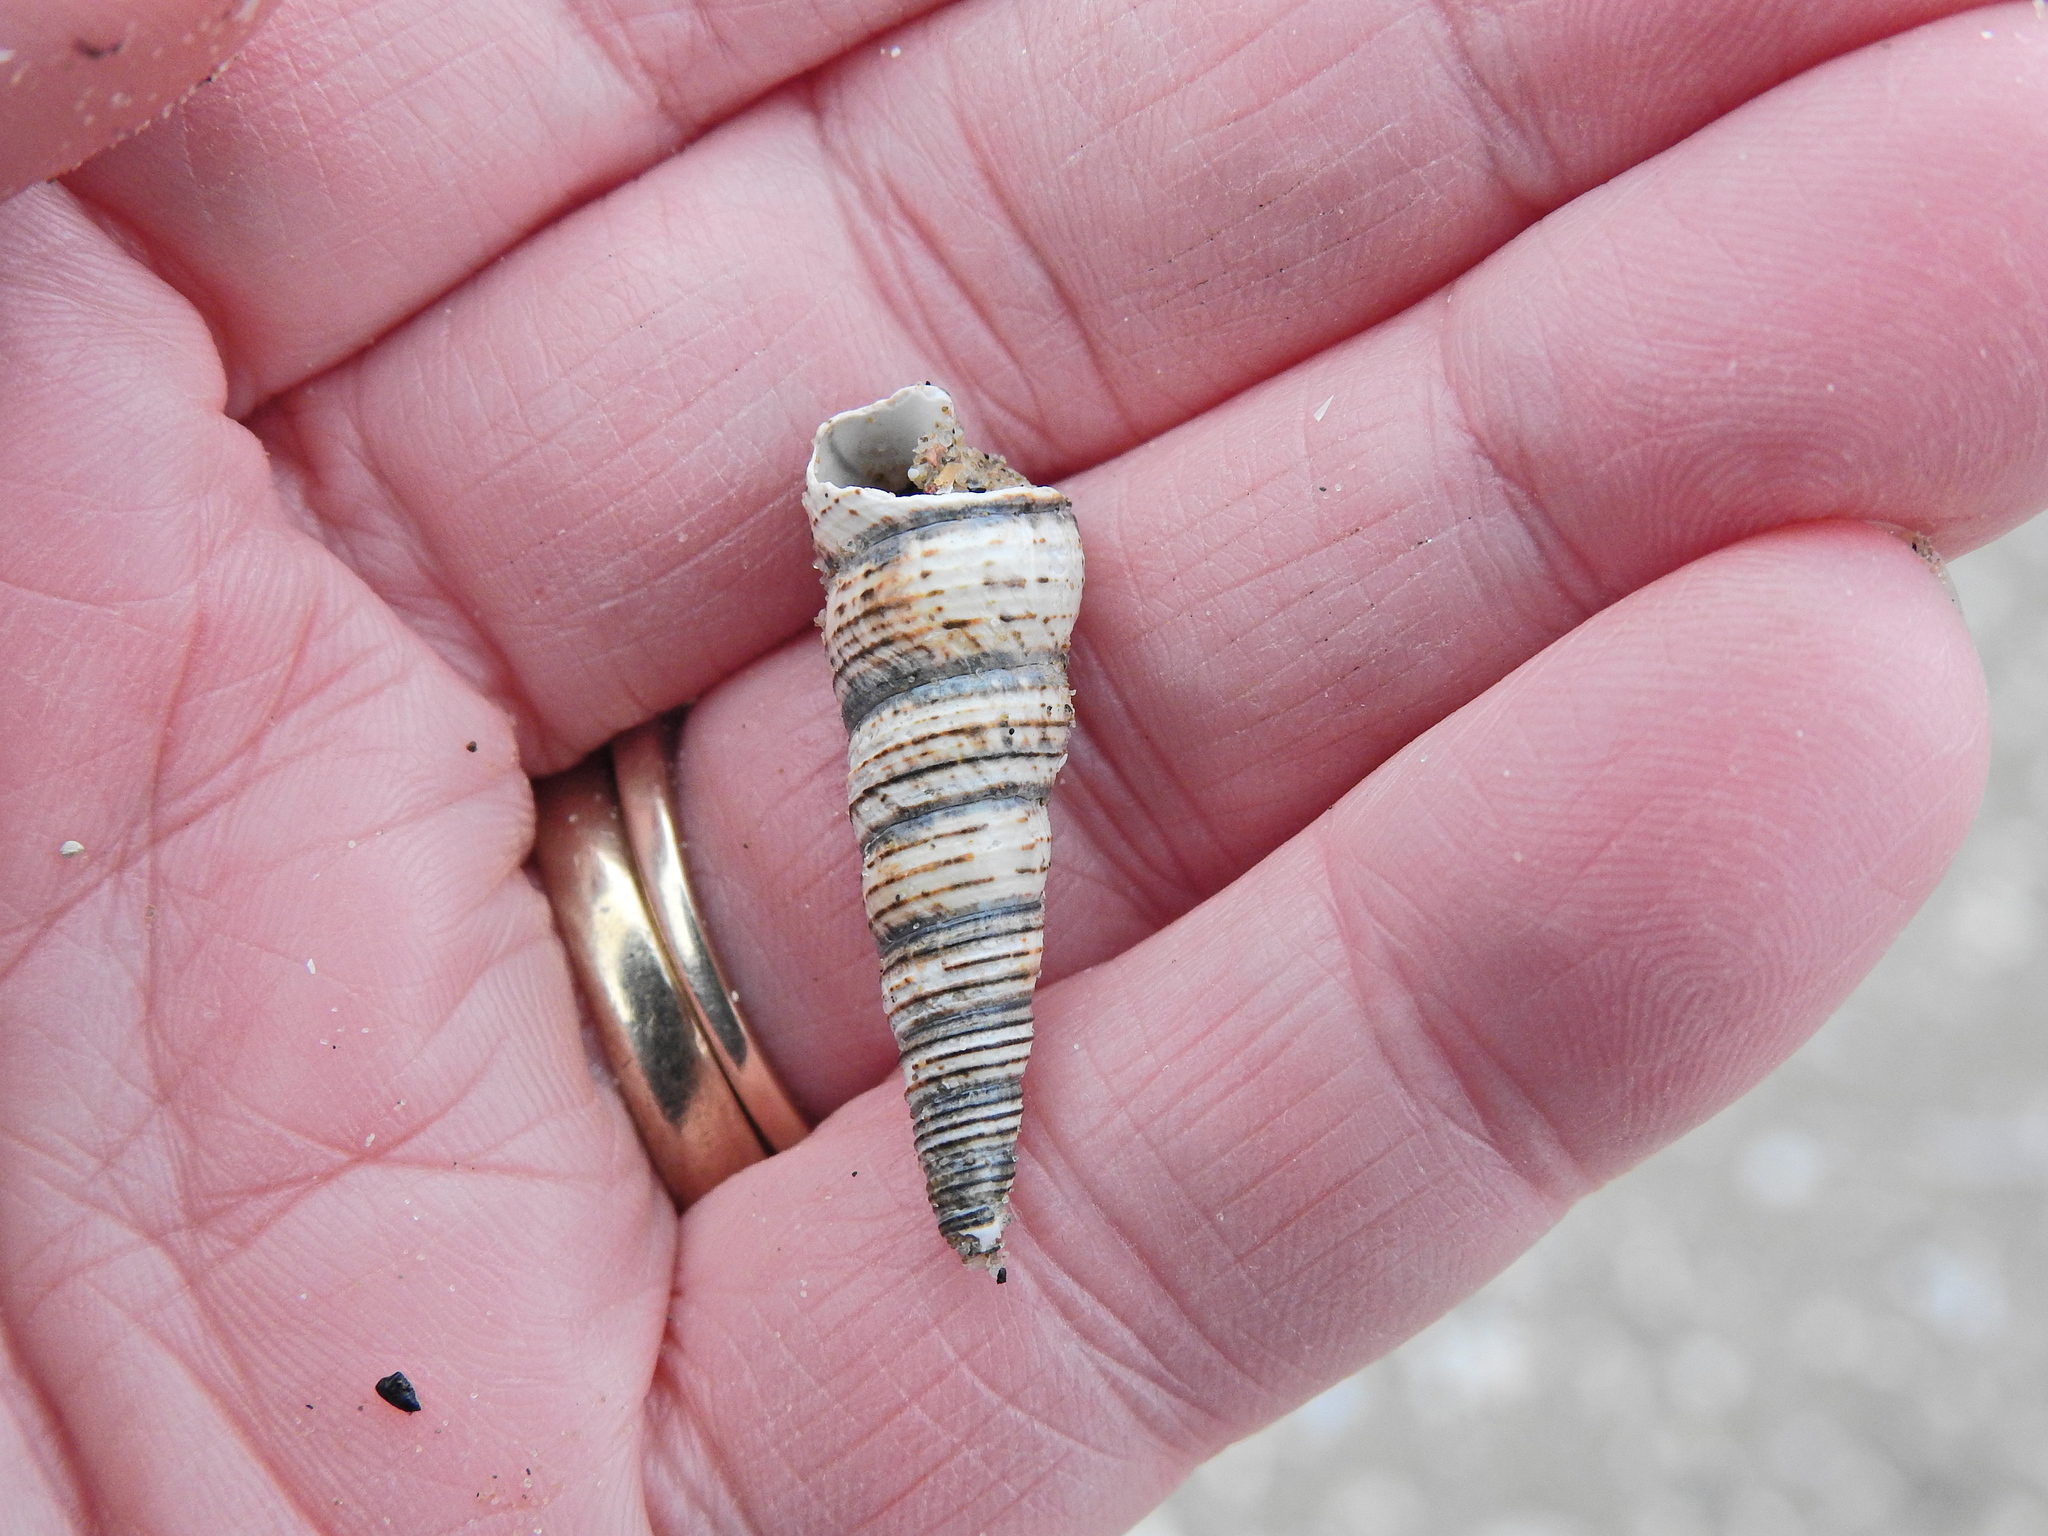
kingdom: Animalia
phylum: Mollusca
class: Gastropoda
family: Turritellidae
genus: Turritellinella
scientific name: Turritellinella tricarinata
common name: Auger shell
